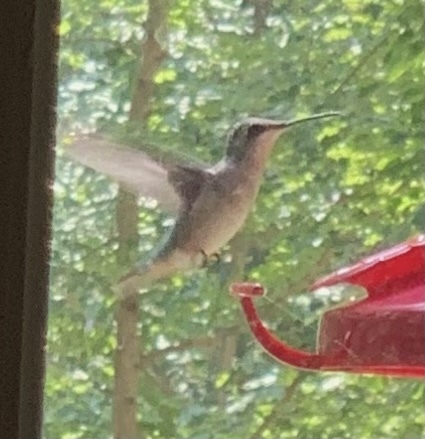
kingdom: Animalia
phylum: Chordata
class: Aves
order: Apodiformes
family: Trochilidae
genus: Archilochus
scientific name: Archilochus colubris
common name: Ruby-throated hummingbird
